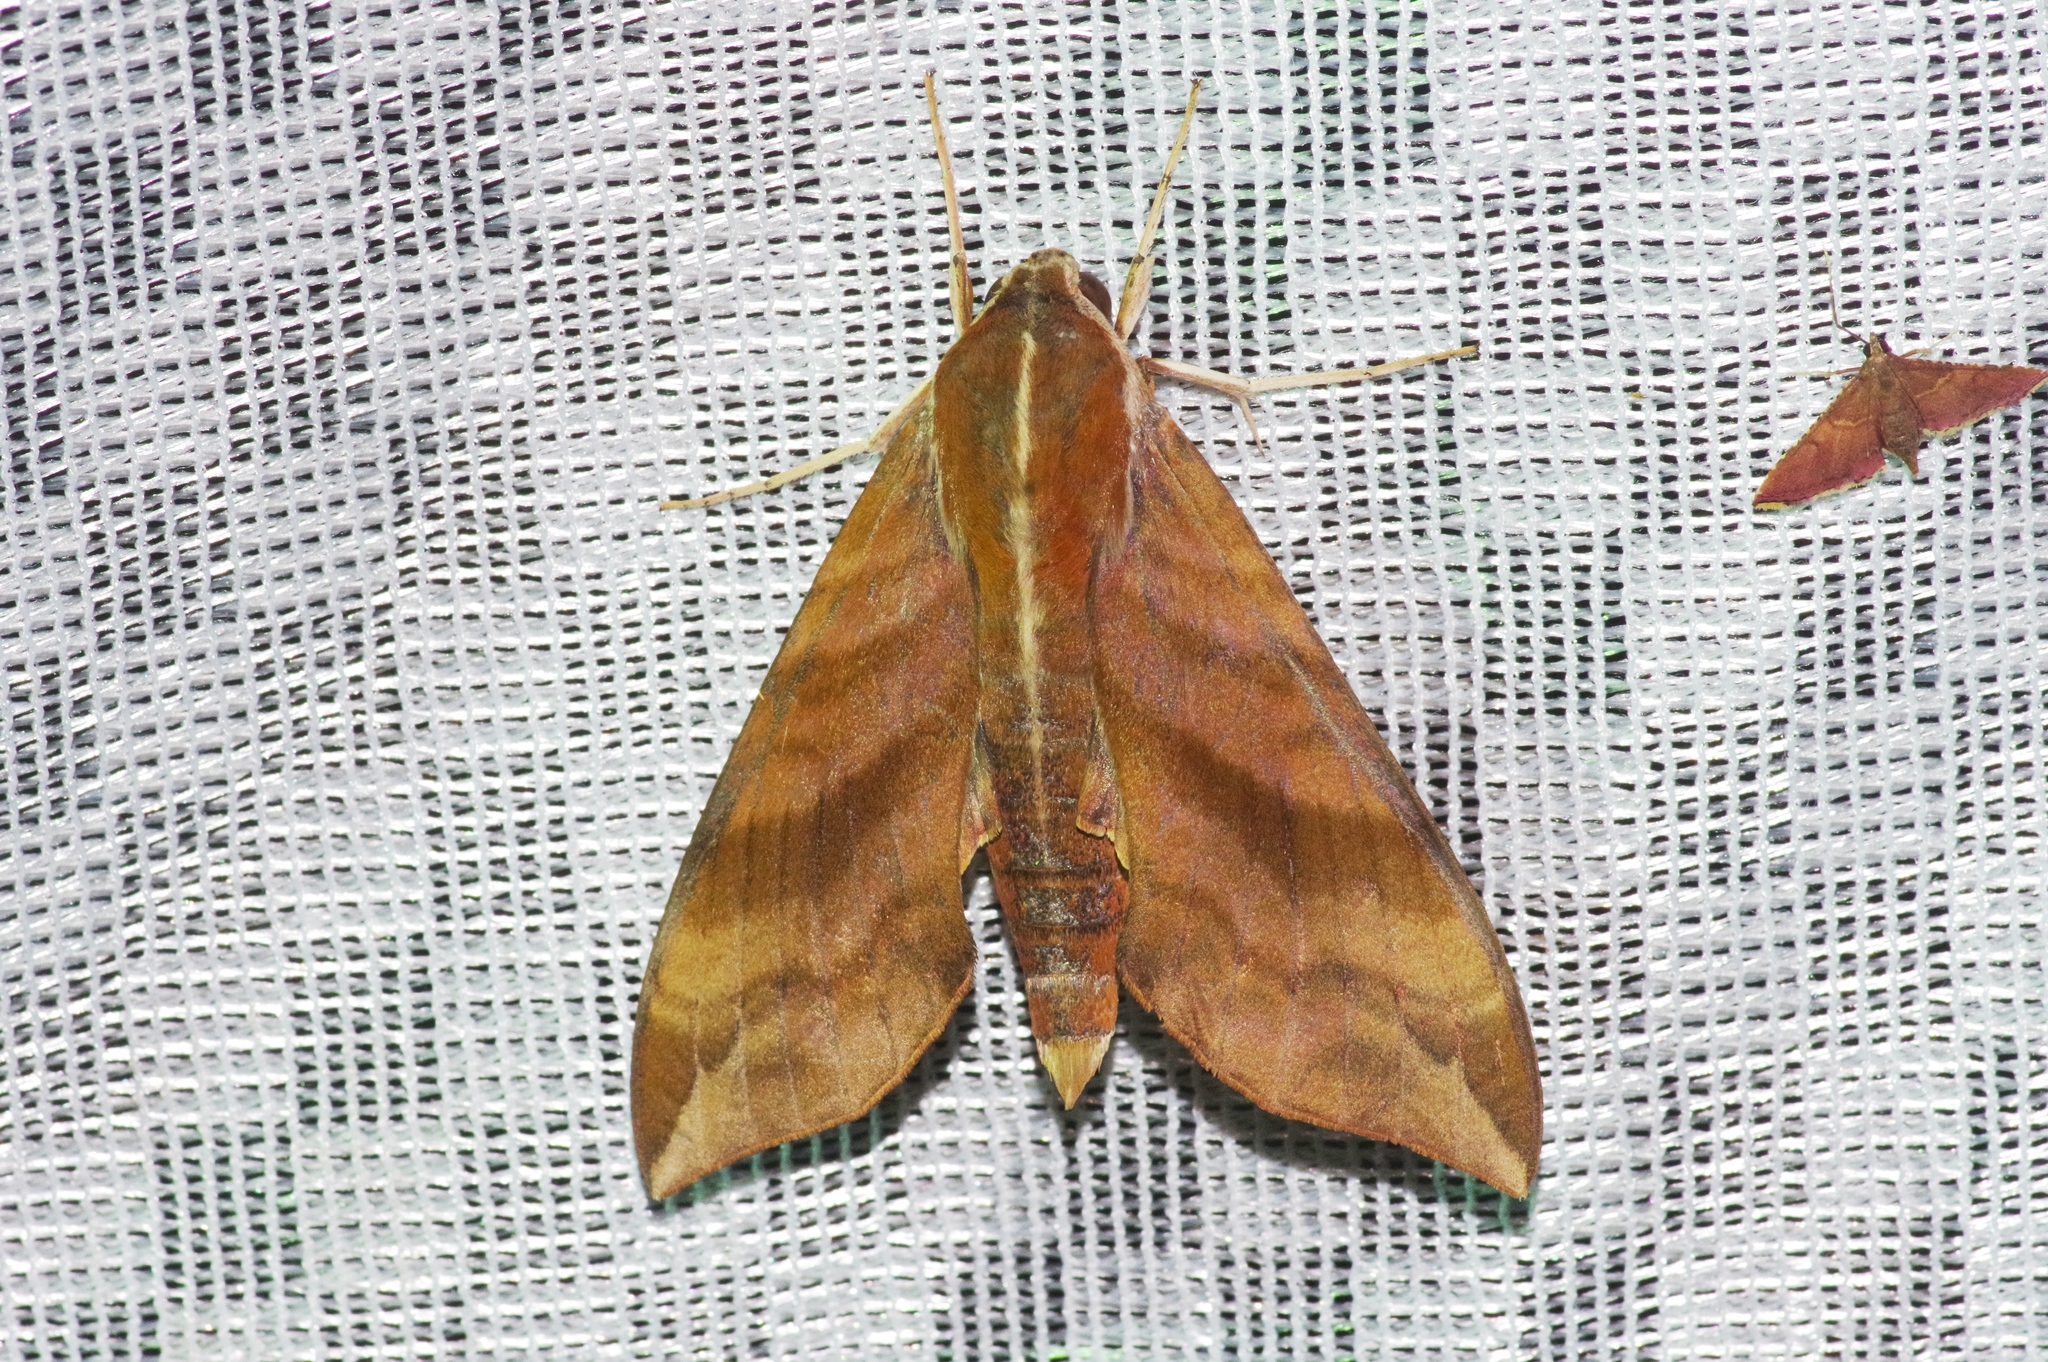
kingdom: Animalia
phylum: Arthropoda
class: Insecta
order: Lepidoptera
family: Sphingidae
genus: Ampelophaga
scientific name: Ampelophaga rubiginosa
